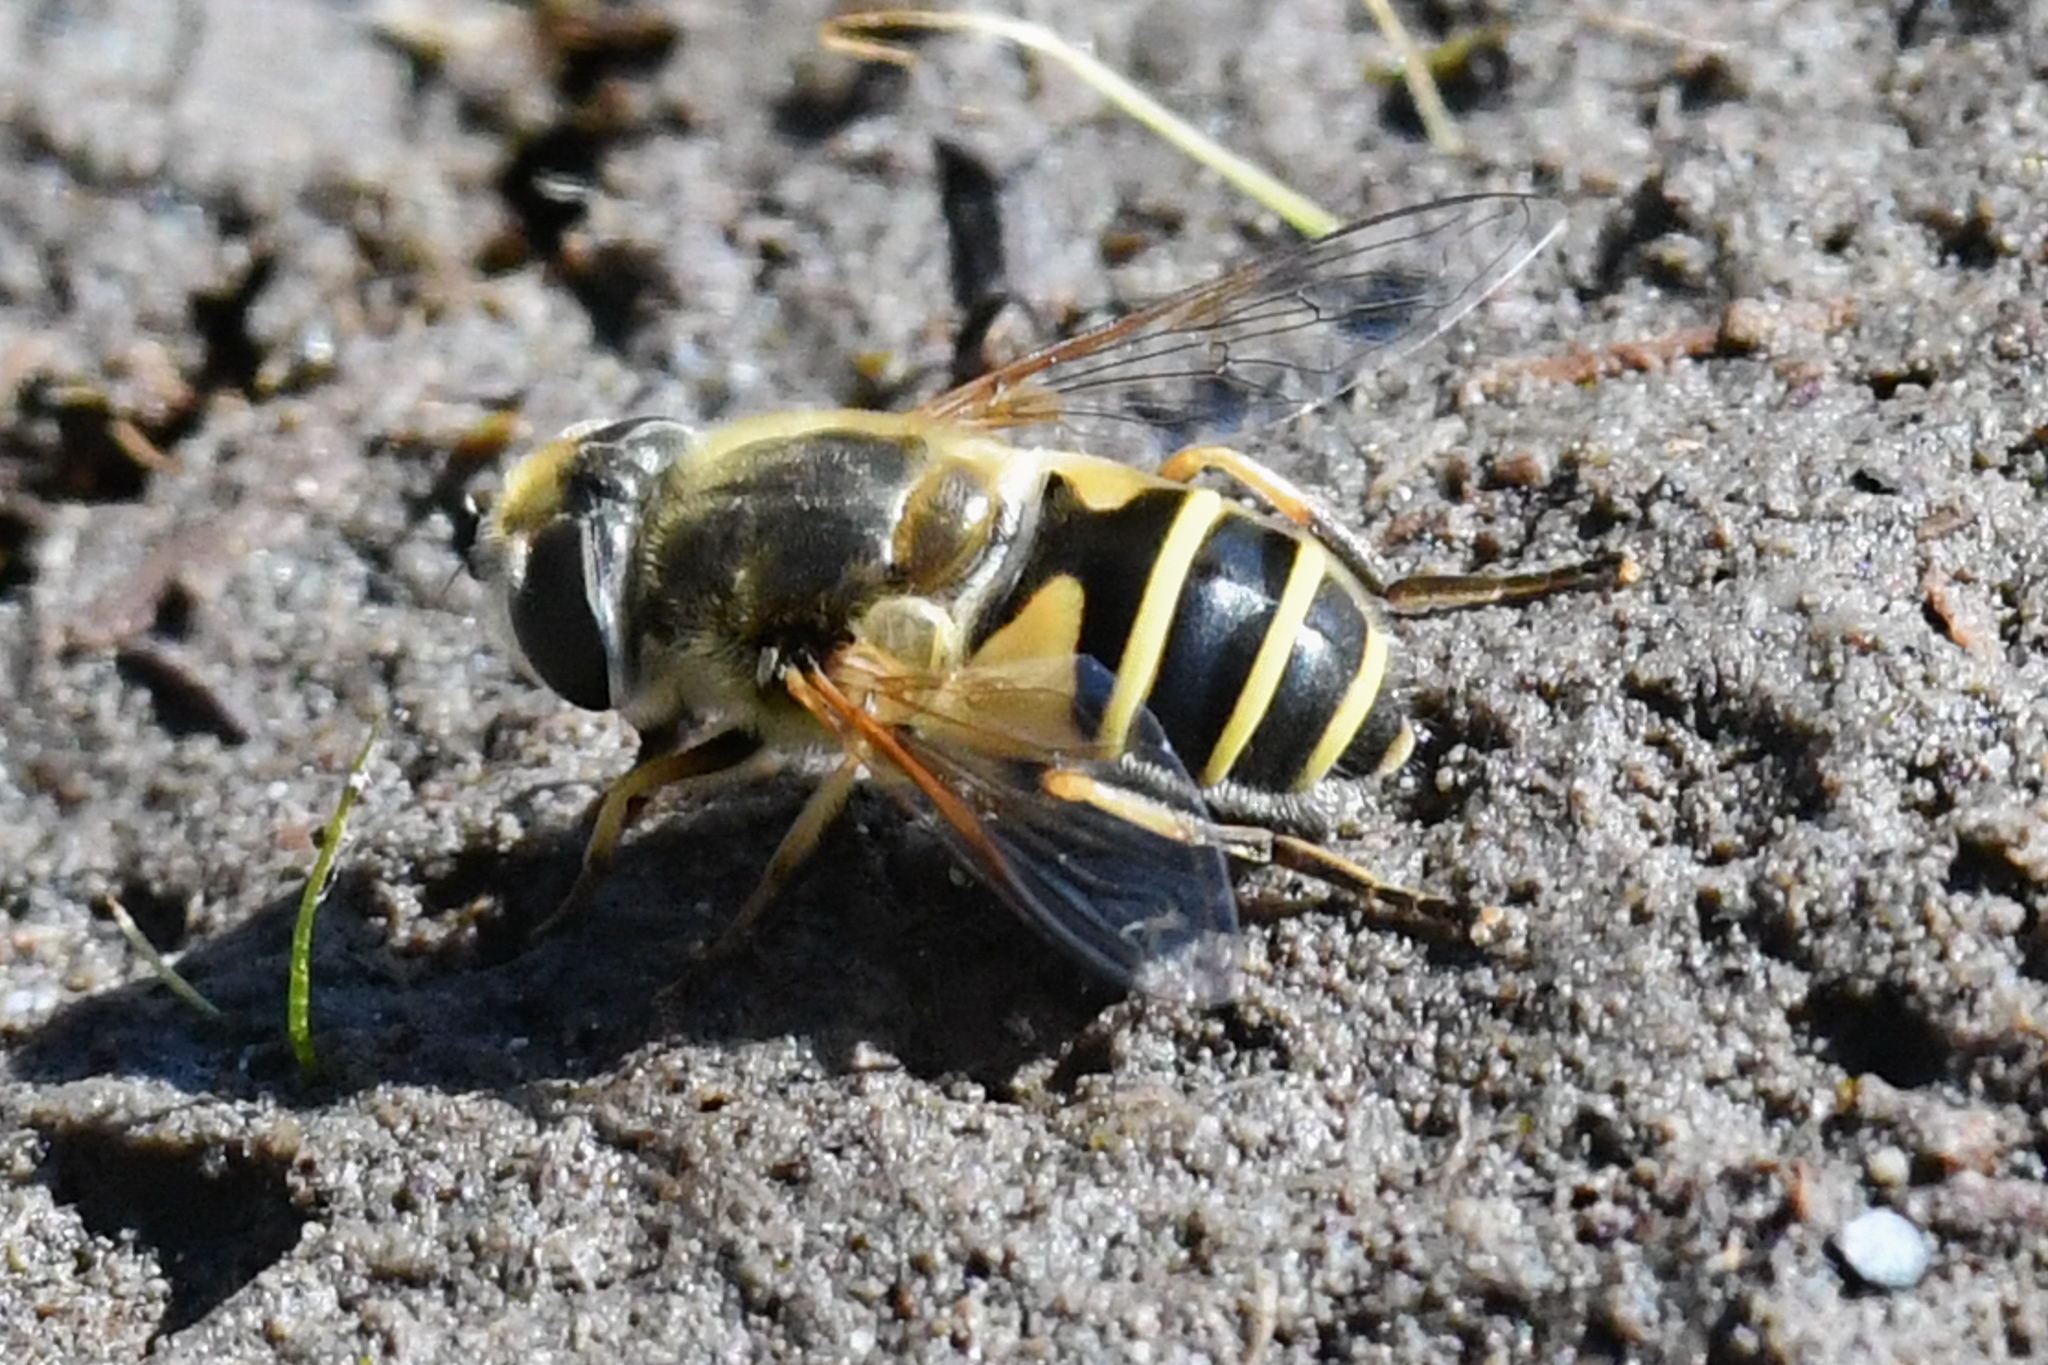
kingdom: Animalia
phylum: Arthropoda
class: Insecta
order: Diptera
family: Syrphidae
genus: Eristalis
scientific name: Eristalis hirta
